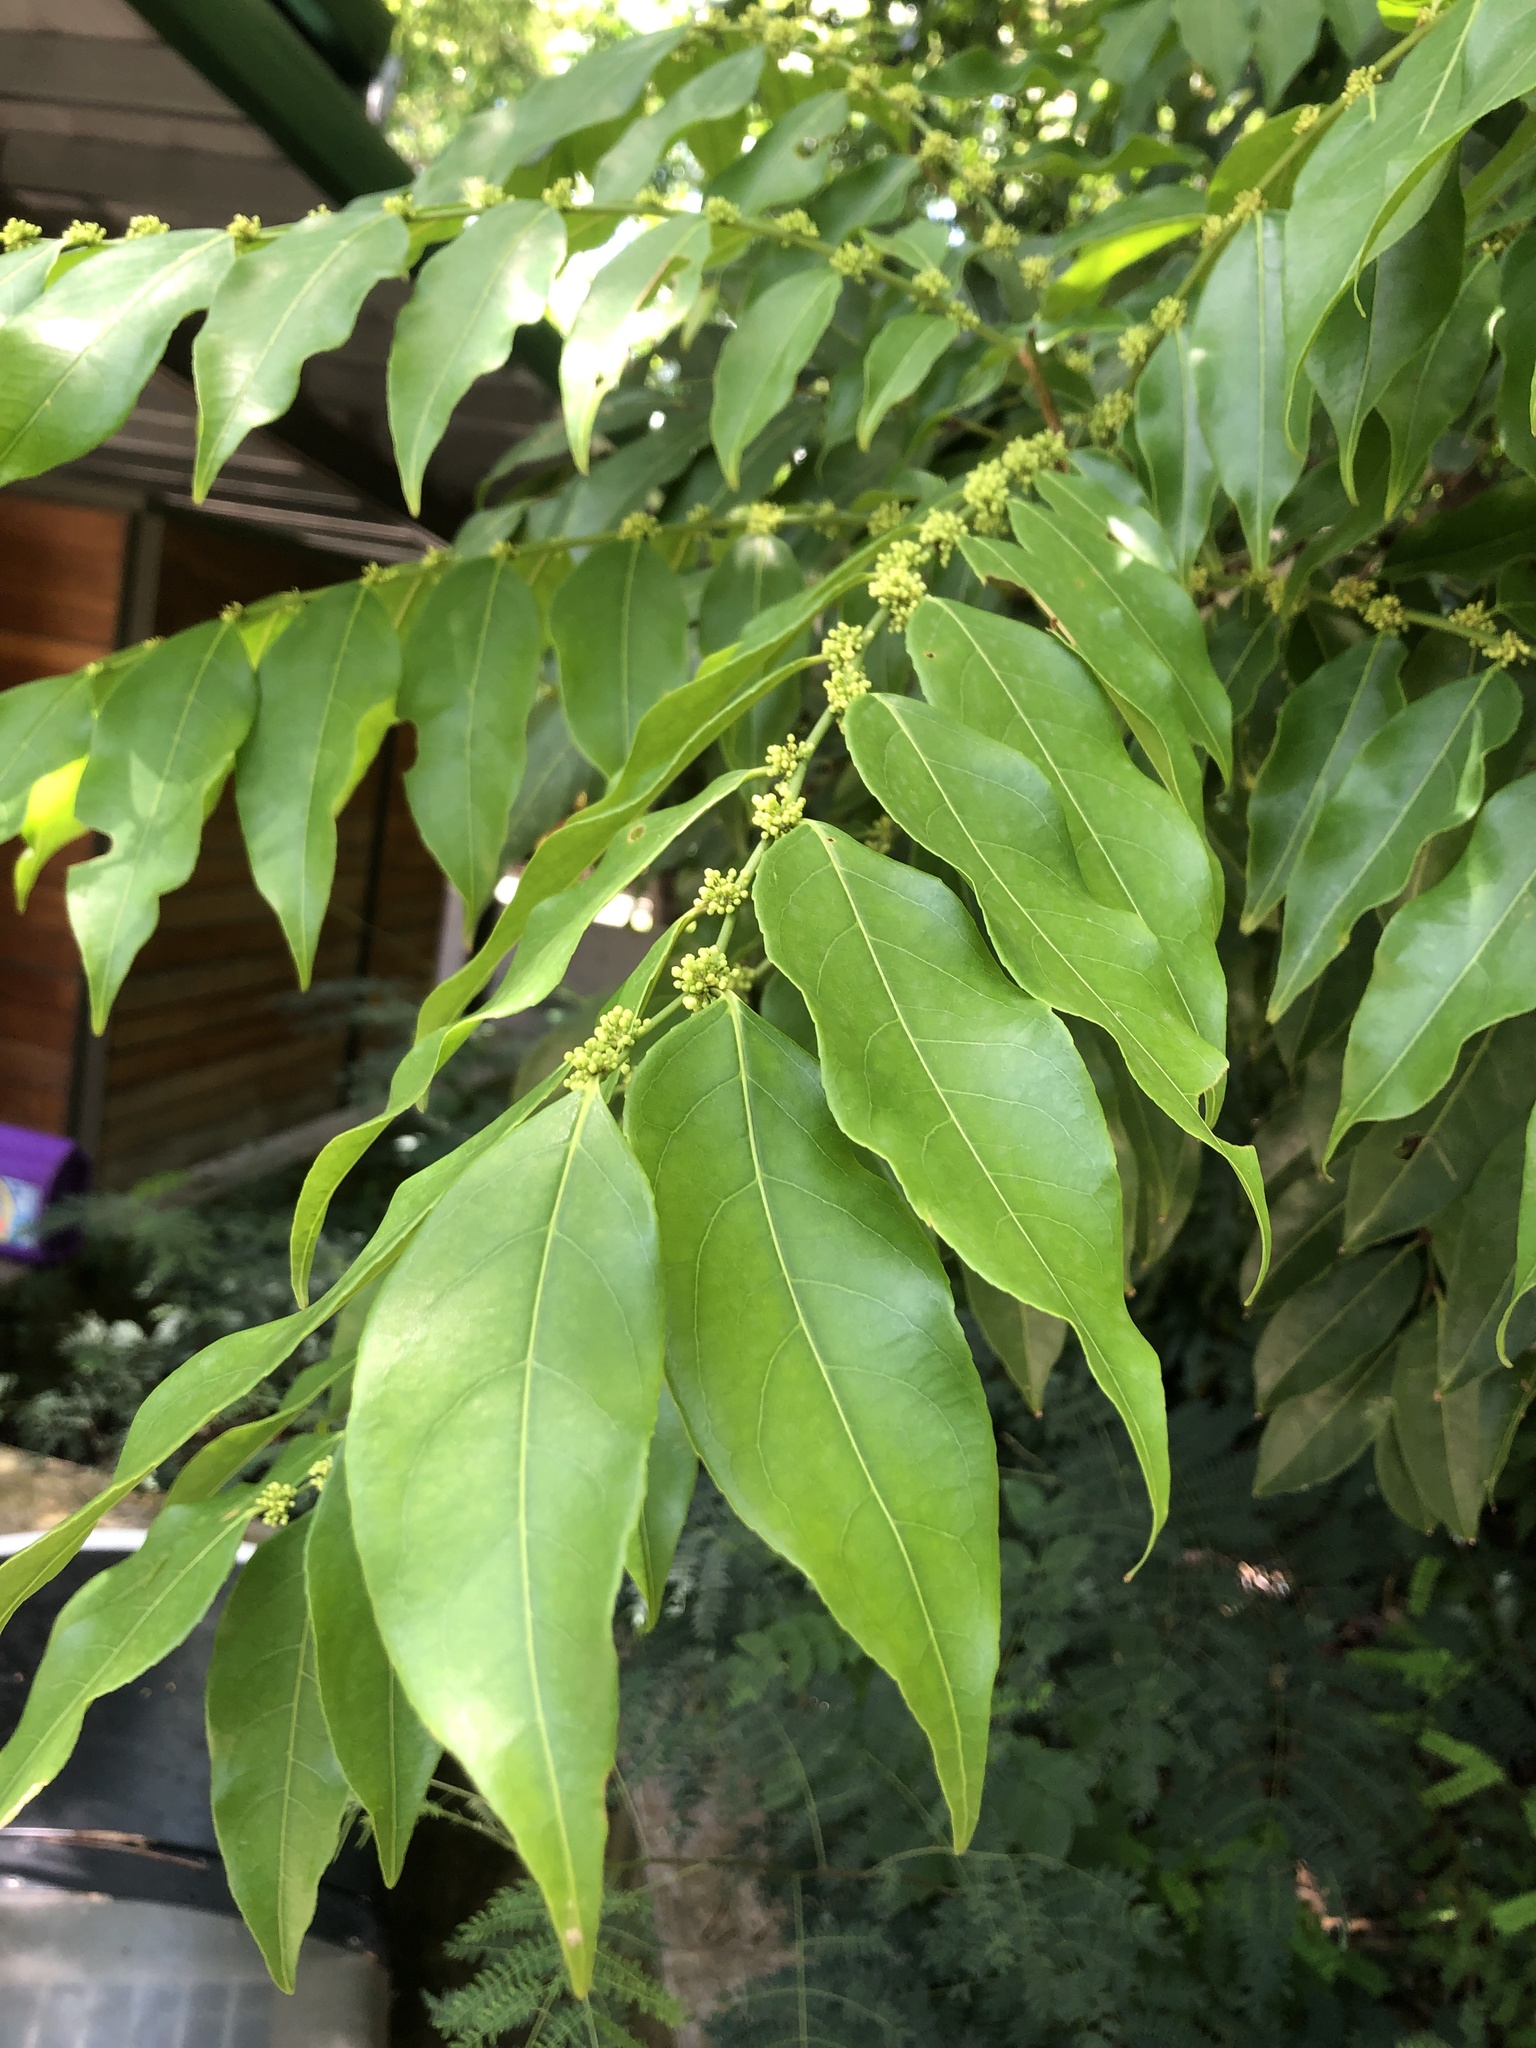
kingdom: Plantae
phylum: Tracheophyta
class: Magnoliopsida
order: Malpighiales
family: Salicaceae
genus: Casearia
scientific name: Casearia sylvestris
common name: Wild sage
